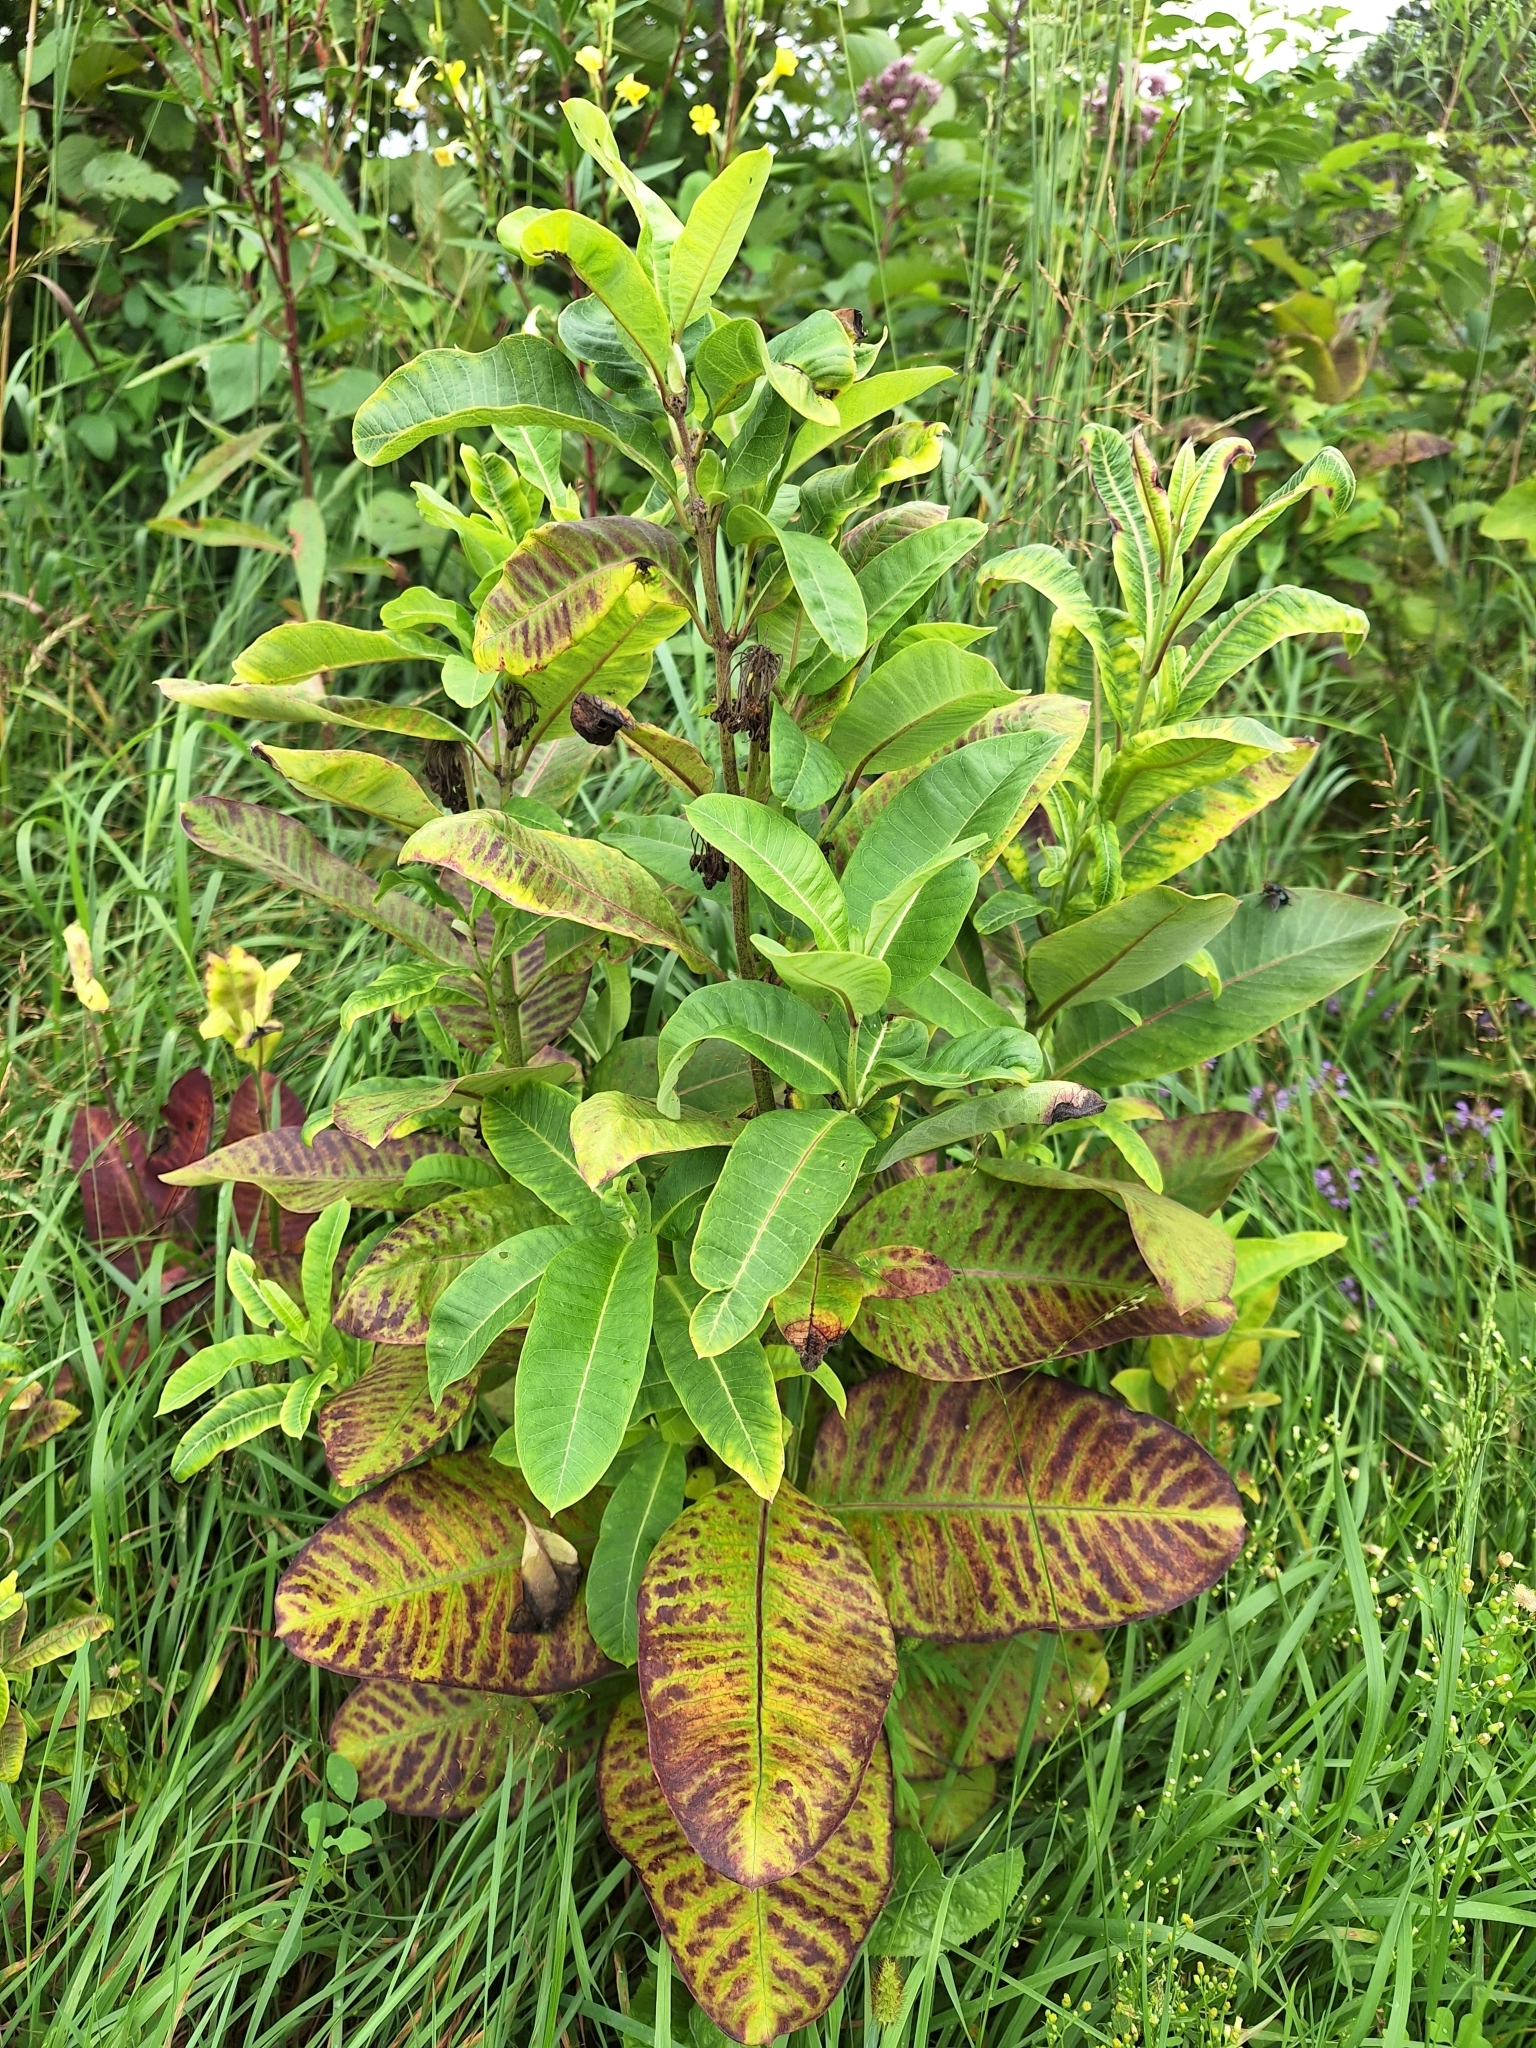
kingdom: Plantae
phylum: Tracheophyta
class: Magnoliopsida
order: Gentianales
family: Apocynaceae
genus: Asclepias
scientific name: Asclepias syriaca
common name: Common milkweed
